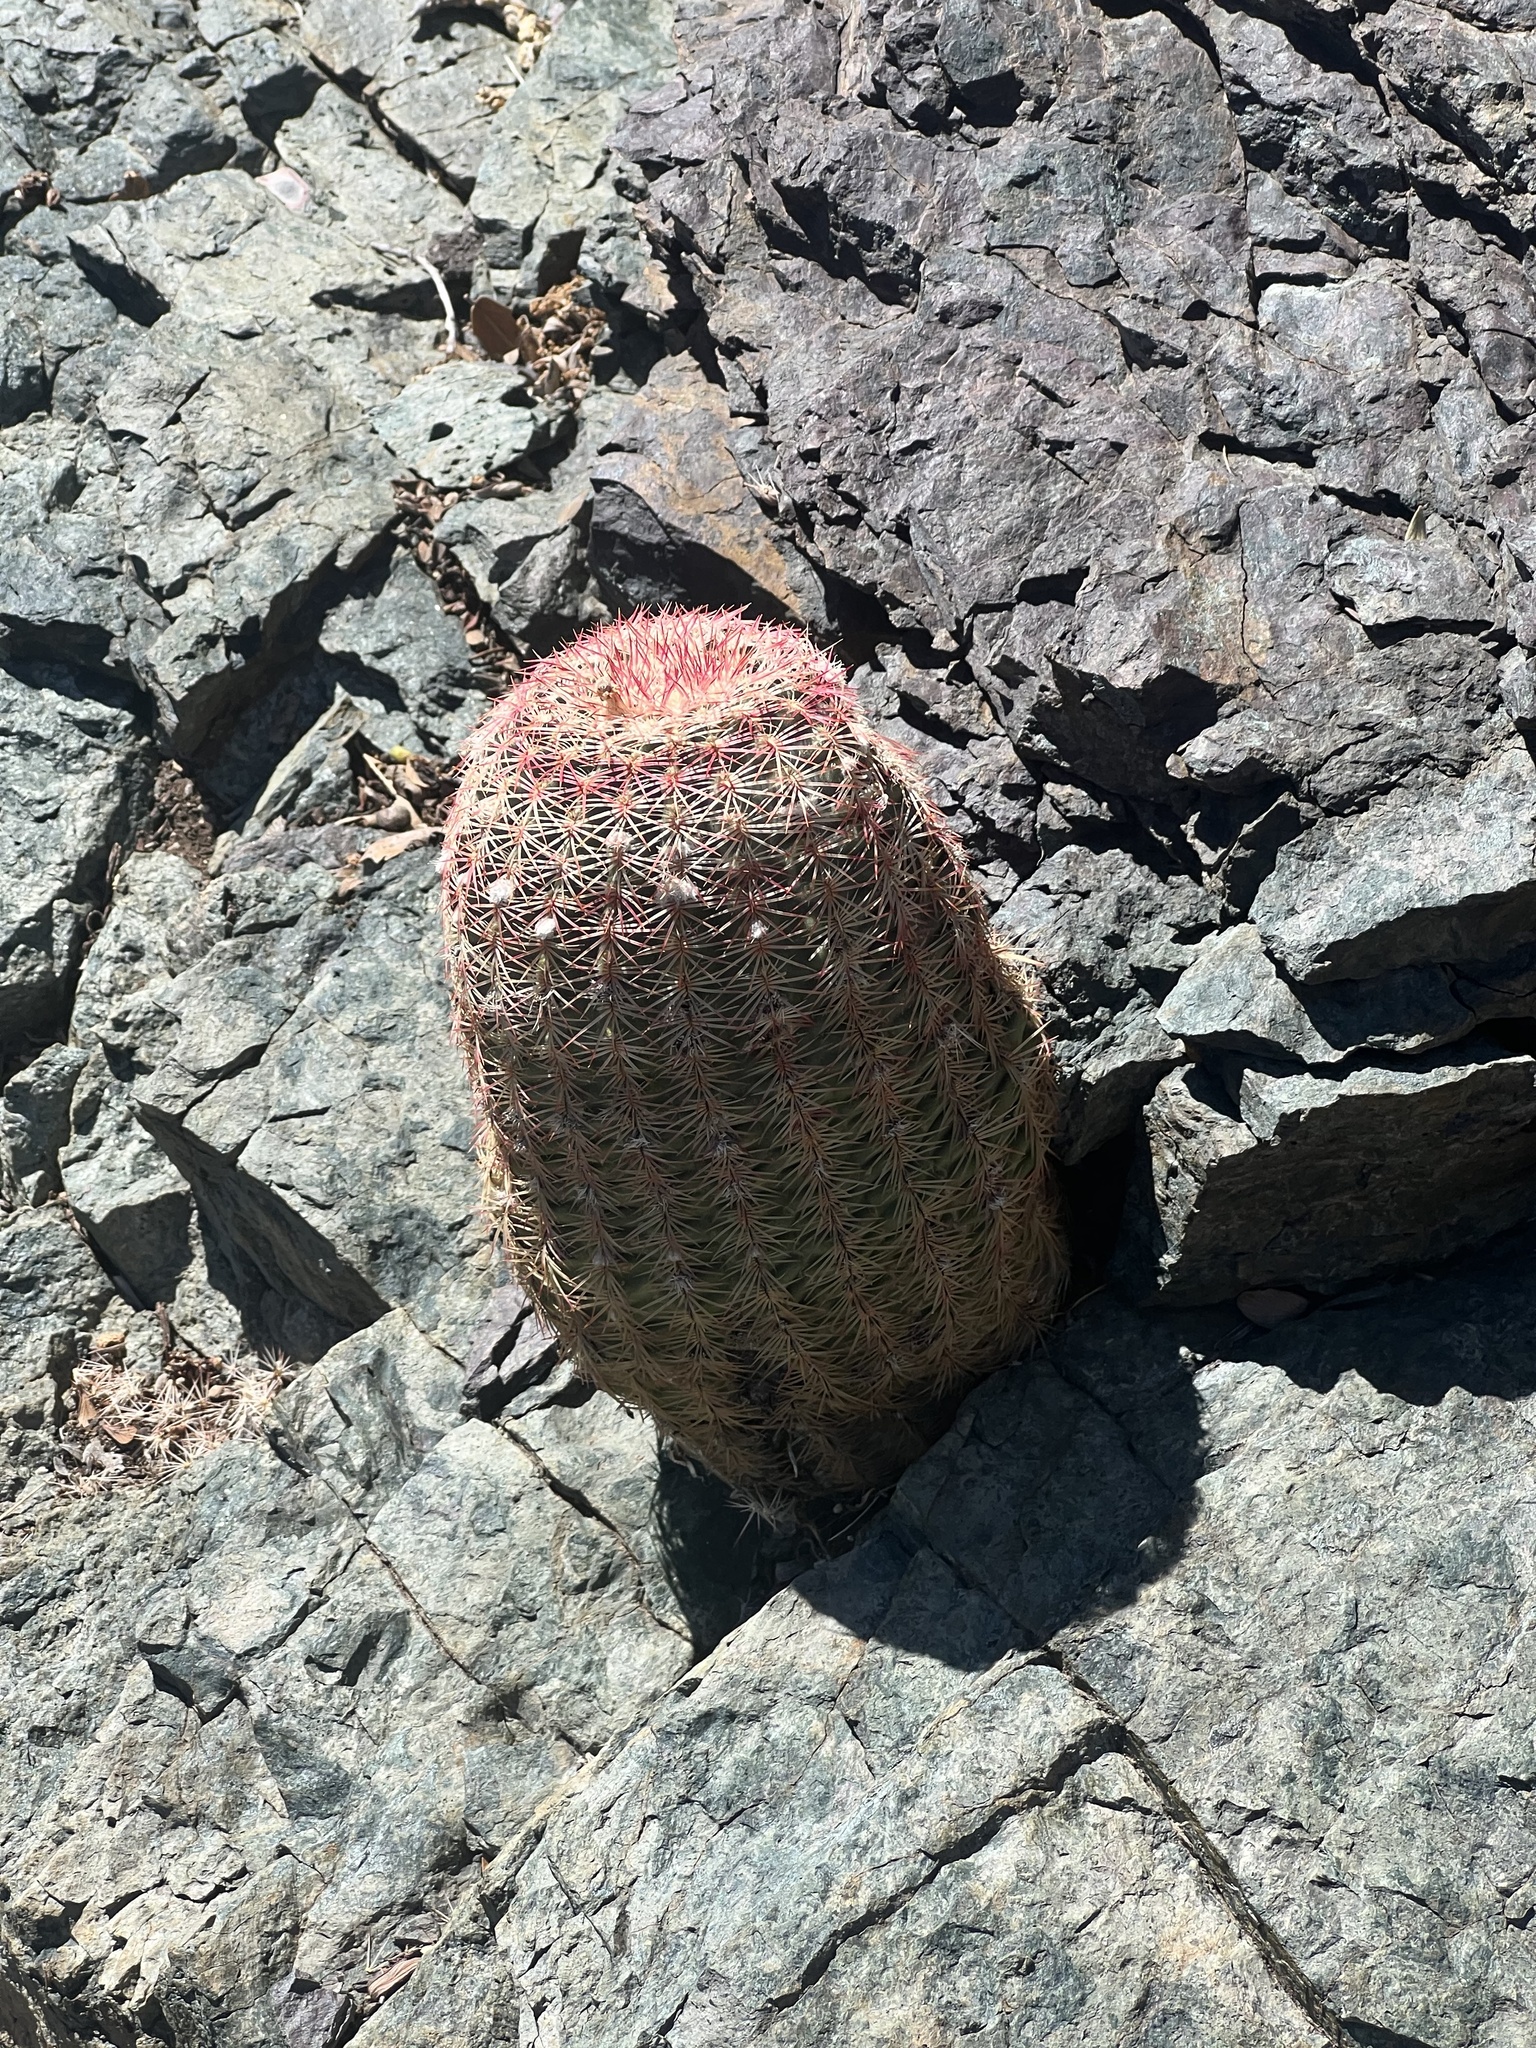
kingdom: Plantae
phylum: Tracheophyta
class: Magnoliopsida
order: Caryophyllales
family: Cactaceae
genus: Echinocereus
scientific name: Echinocereus rigidissimus
